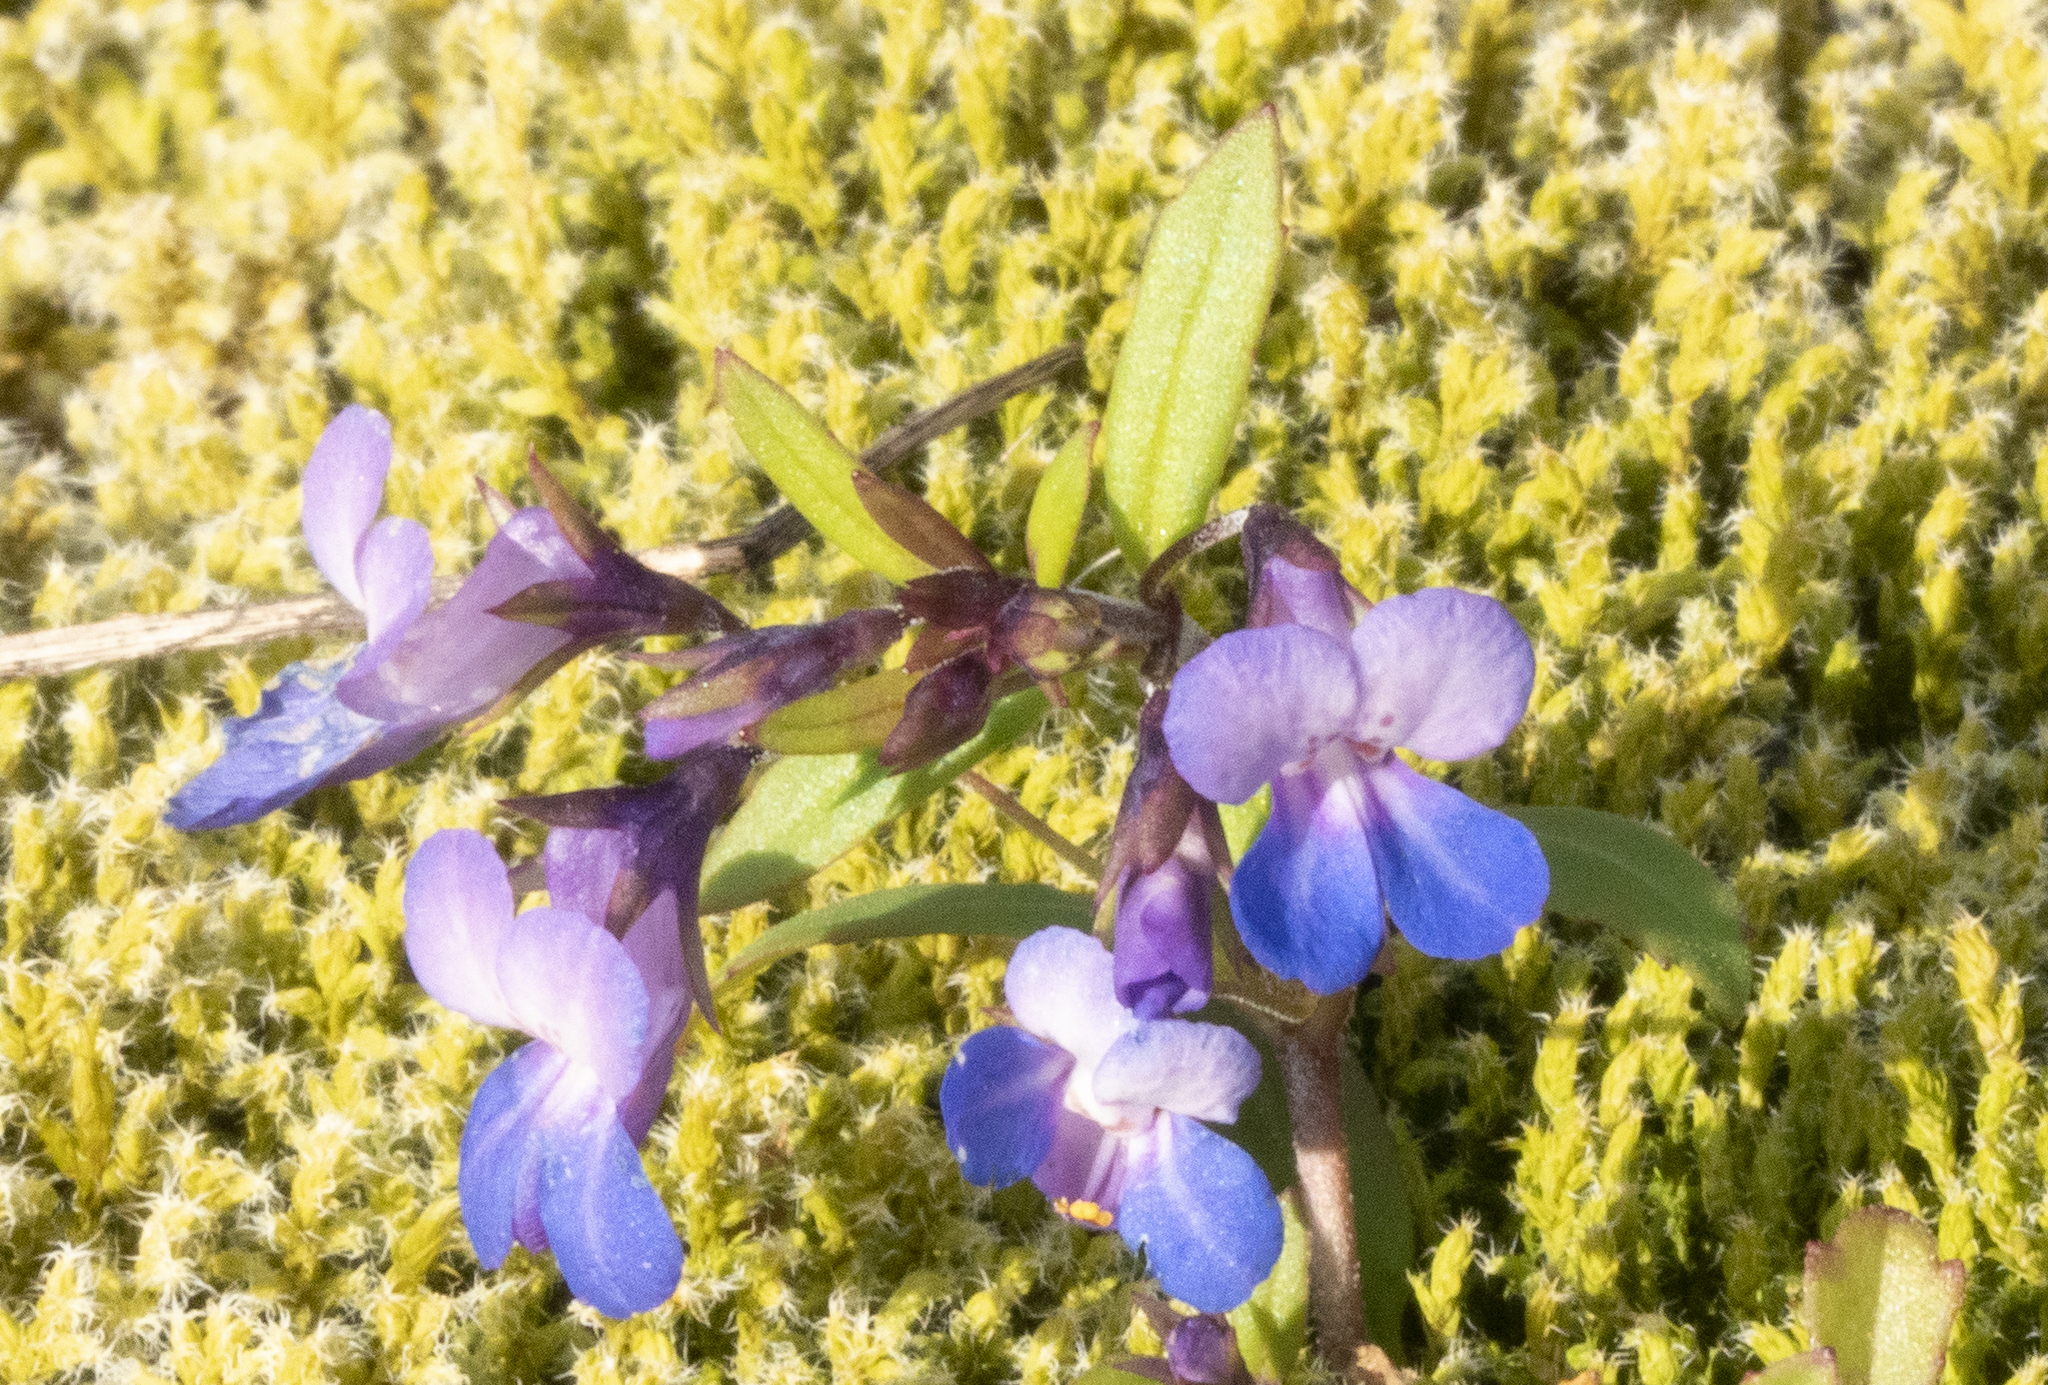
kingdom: Plantae
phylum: Tracheophyta
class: Magnoliopsida
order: Lamiales
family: Plantaginaceae
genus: Collinsia
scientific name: Collinsia parviflora
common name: Blue-lips
